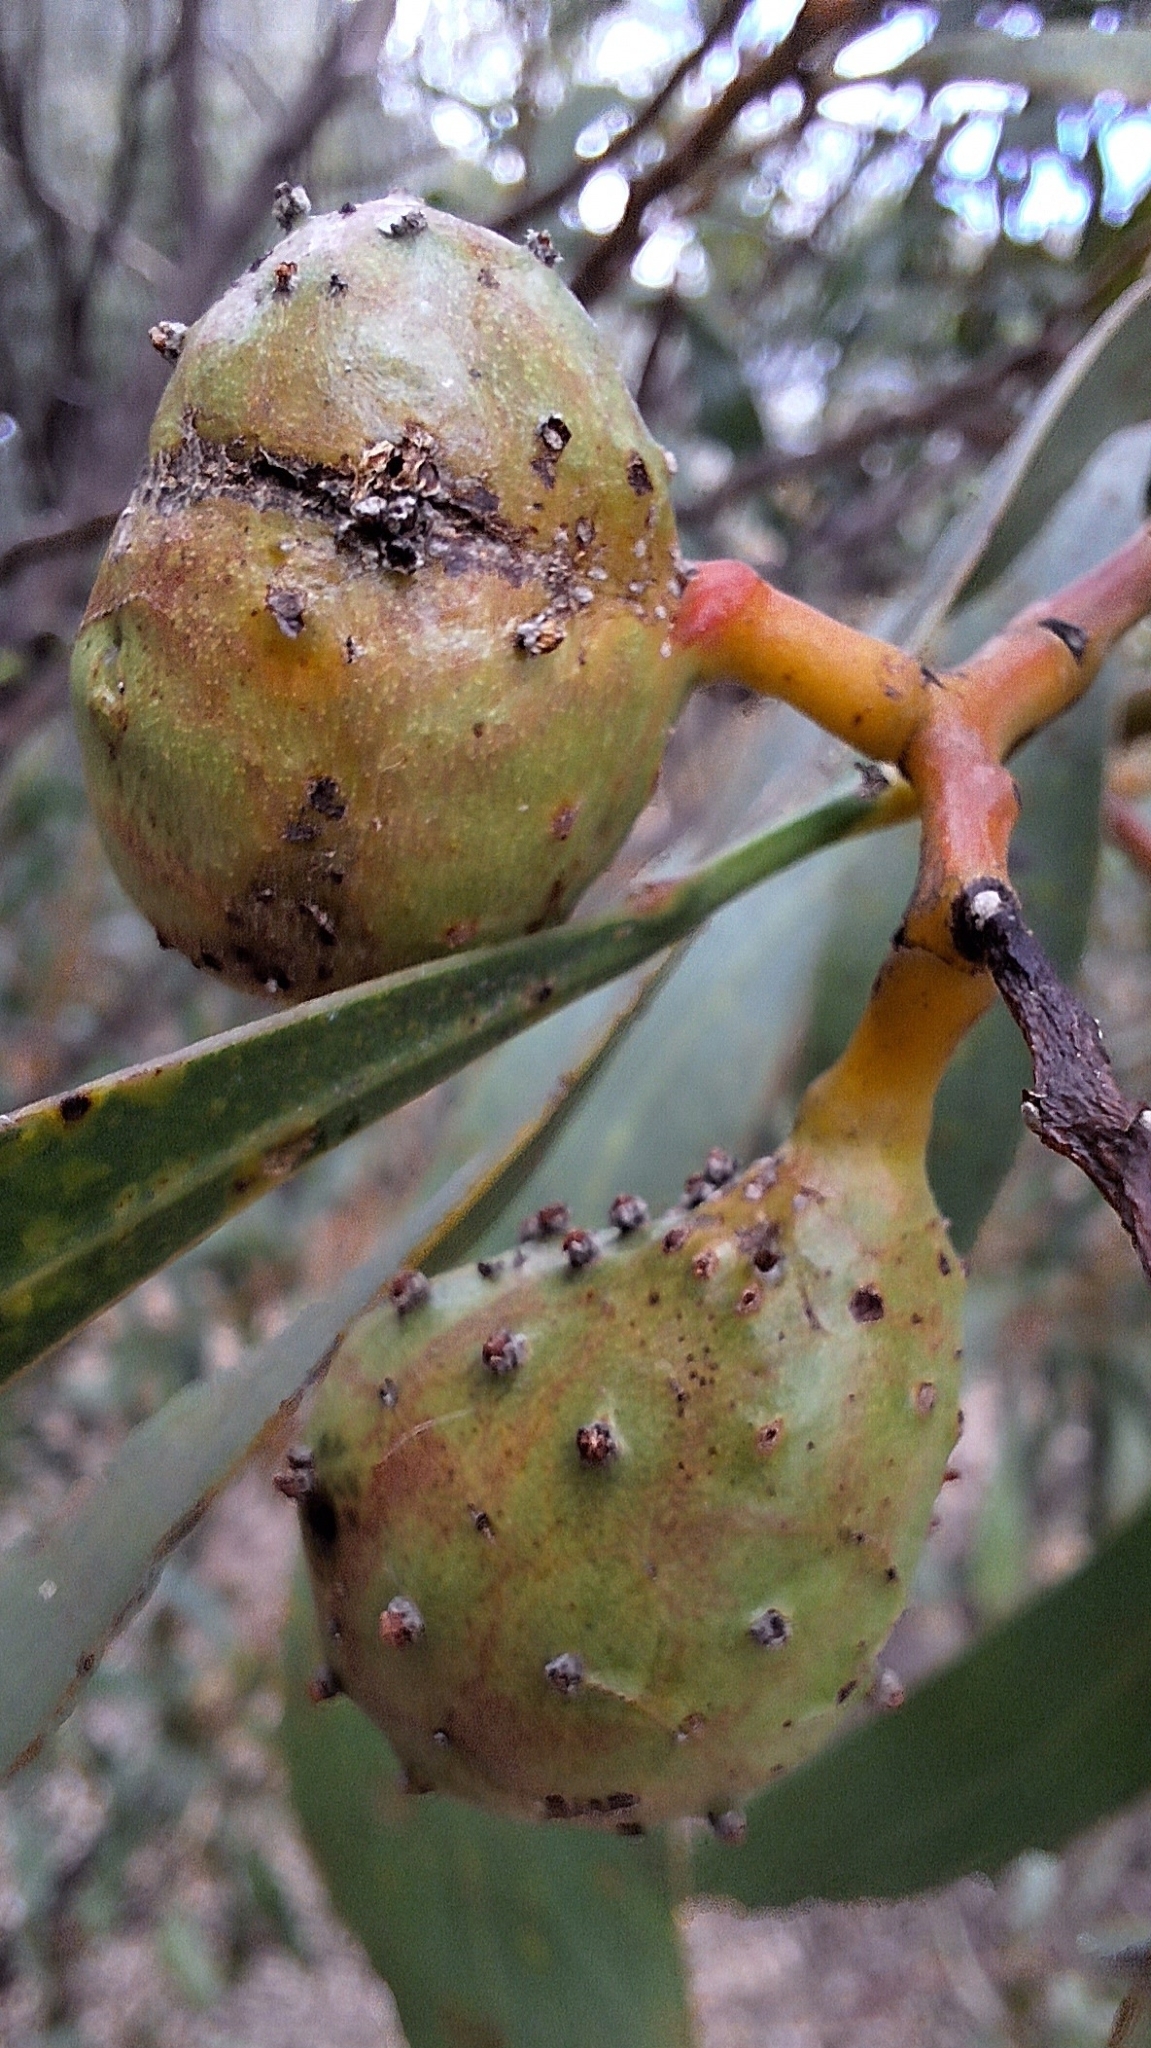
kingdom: Animalia
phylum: Arthropoda
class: Insecta
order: Hymenoptera
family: Pteromalidae
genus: Trichilogaster
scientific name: Trichilogaster signiventris
